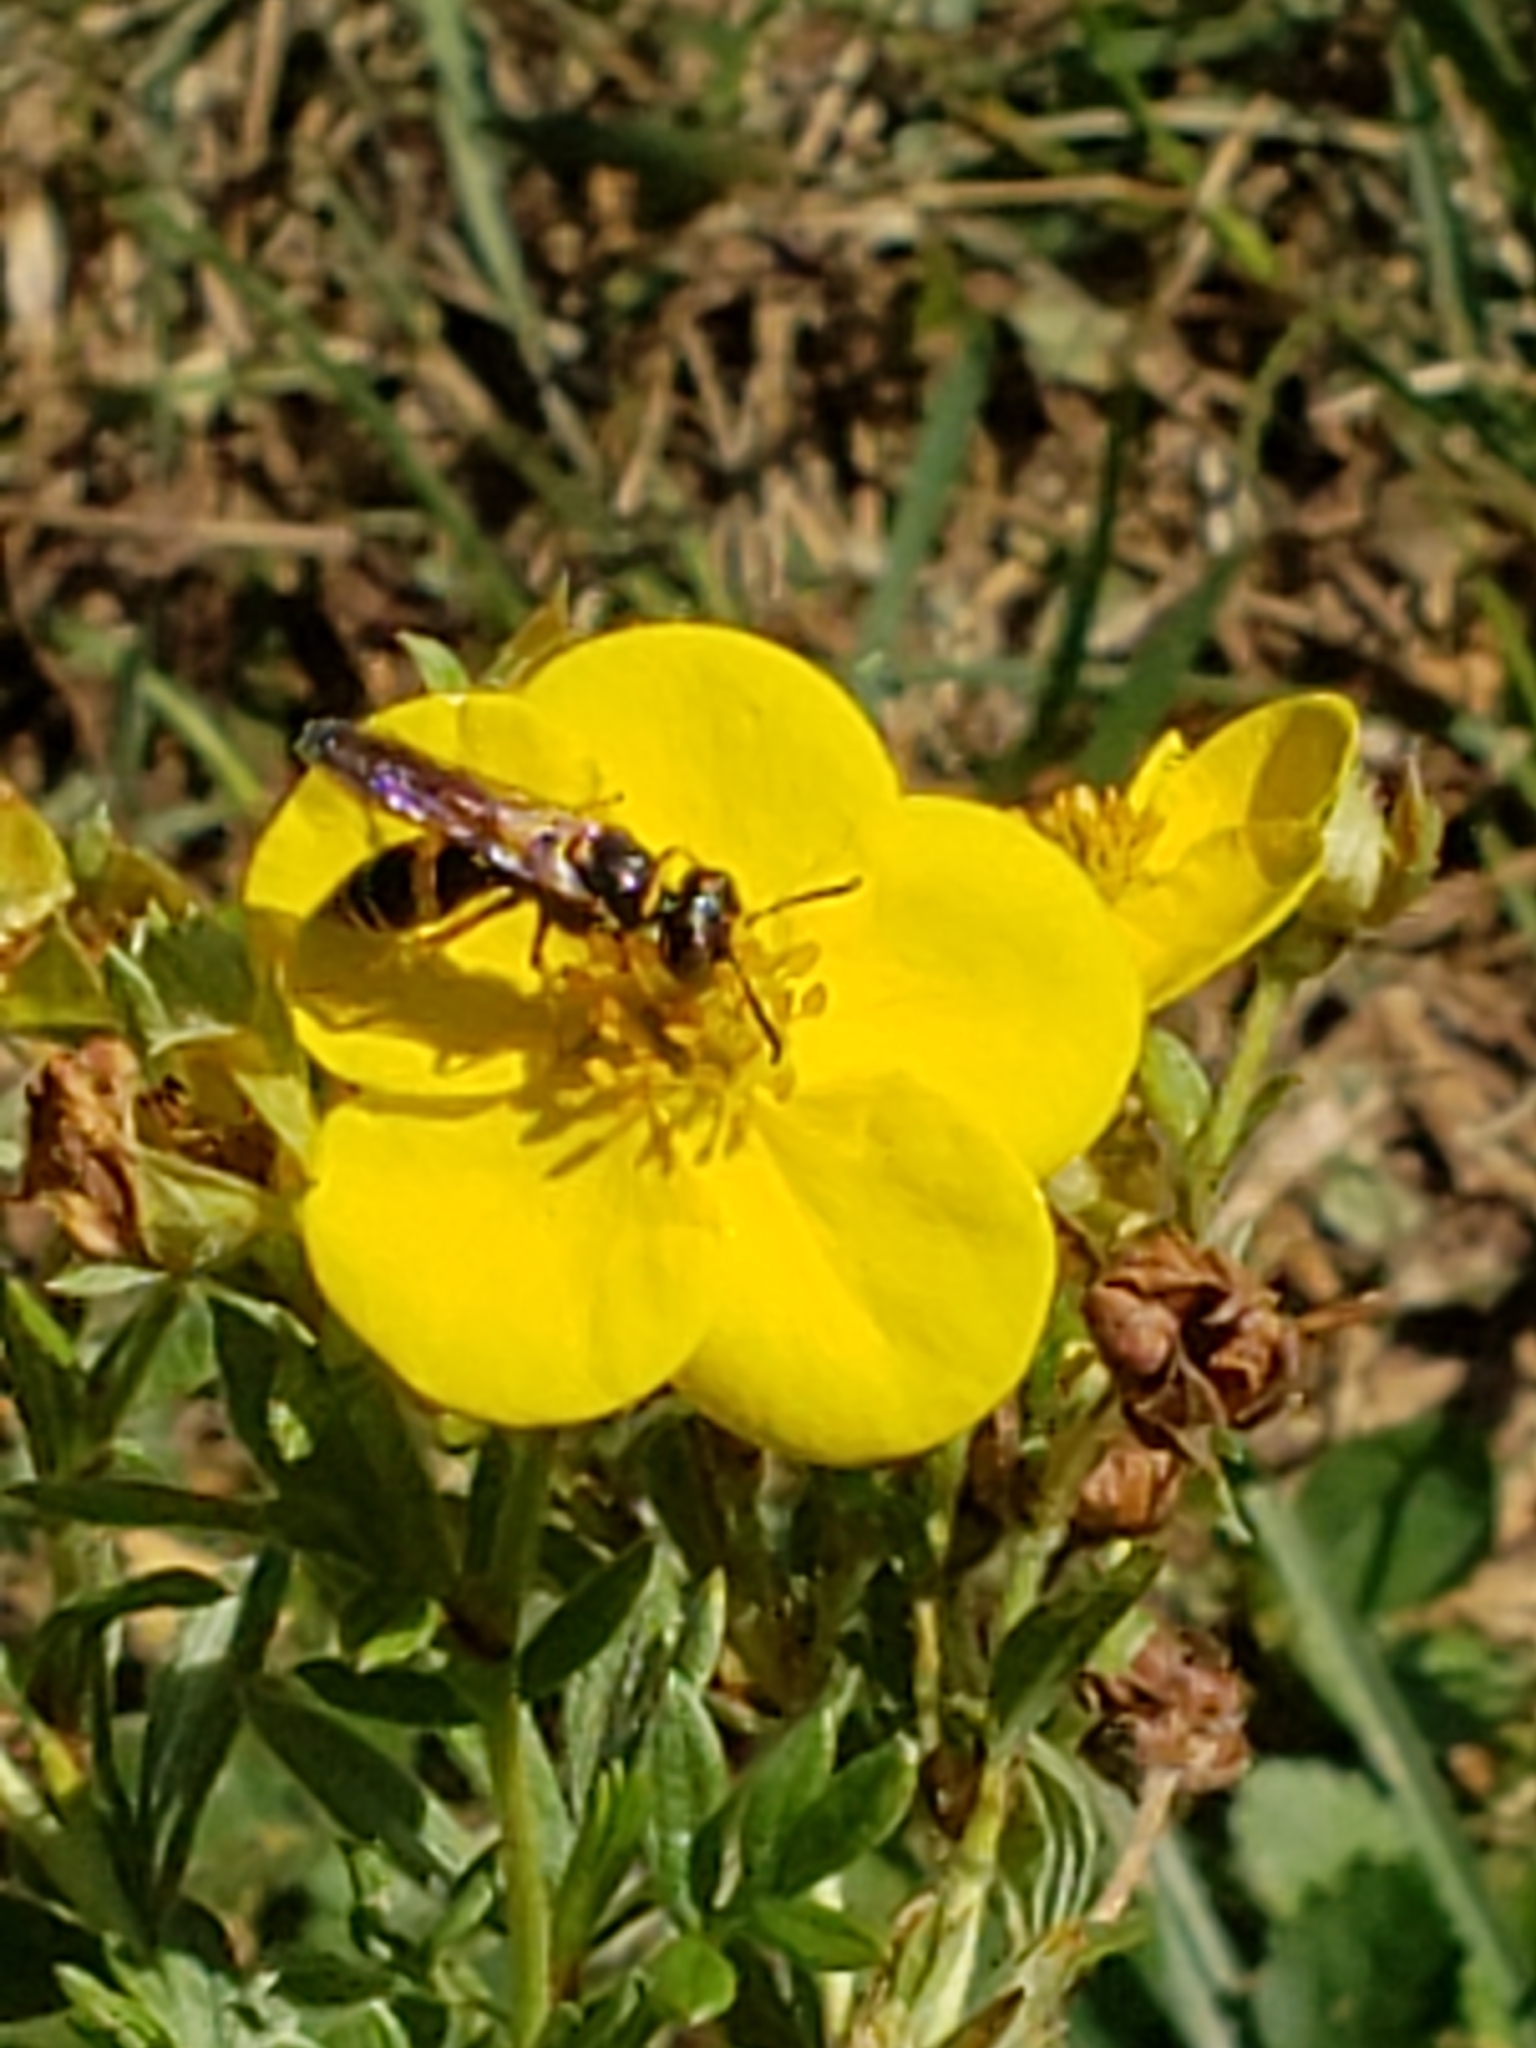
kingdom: Animalia
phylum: Arthropoda
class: Insecta
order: Hymenoptera
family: Crabronidae
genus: Philanthus
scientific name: Philanthus gibbosus
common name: Humped beewolf
